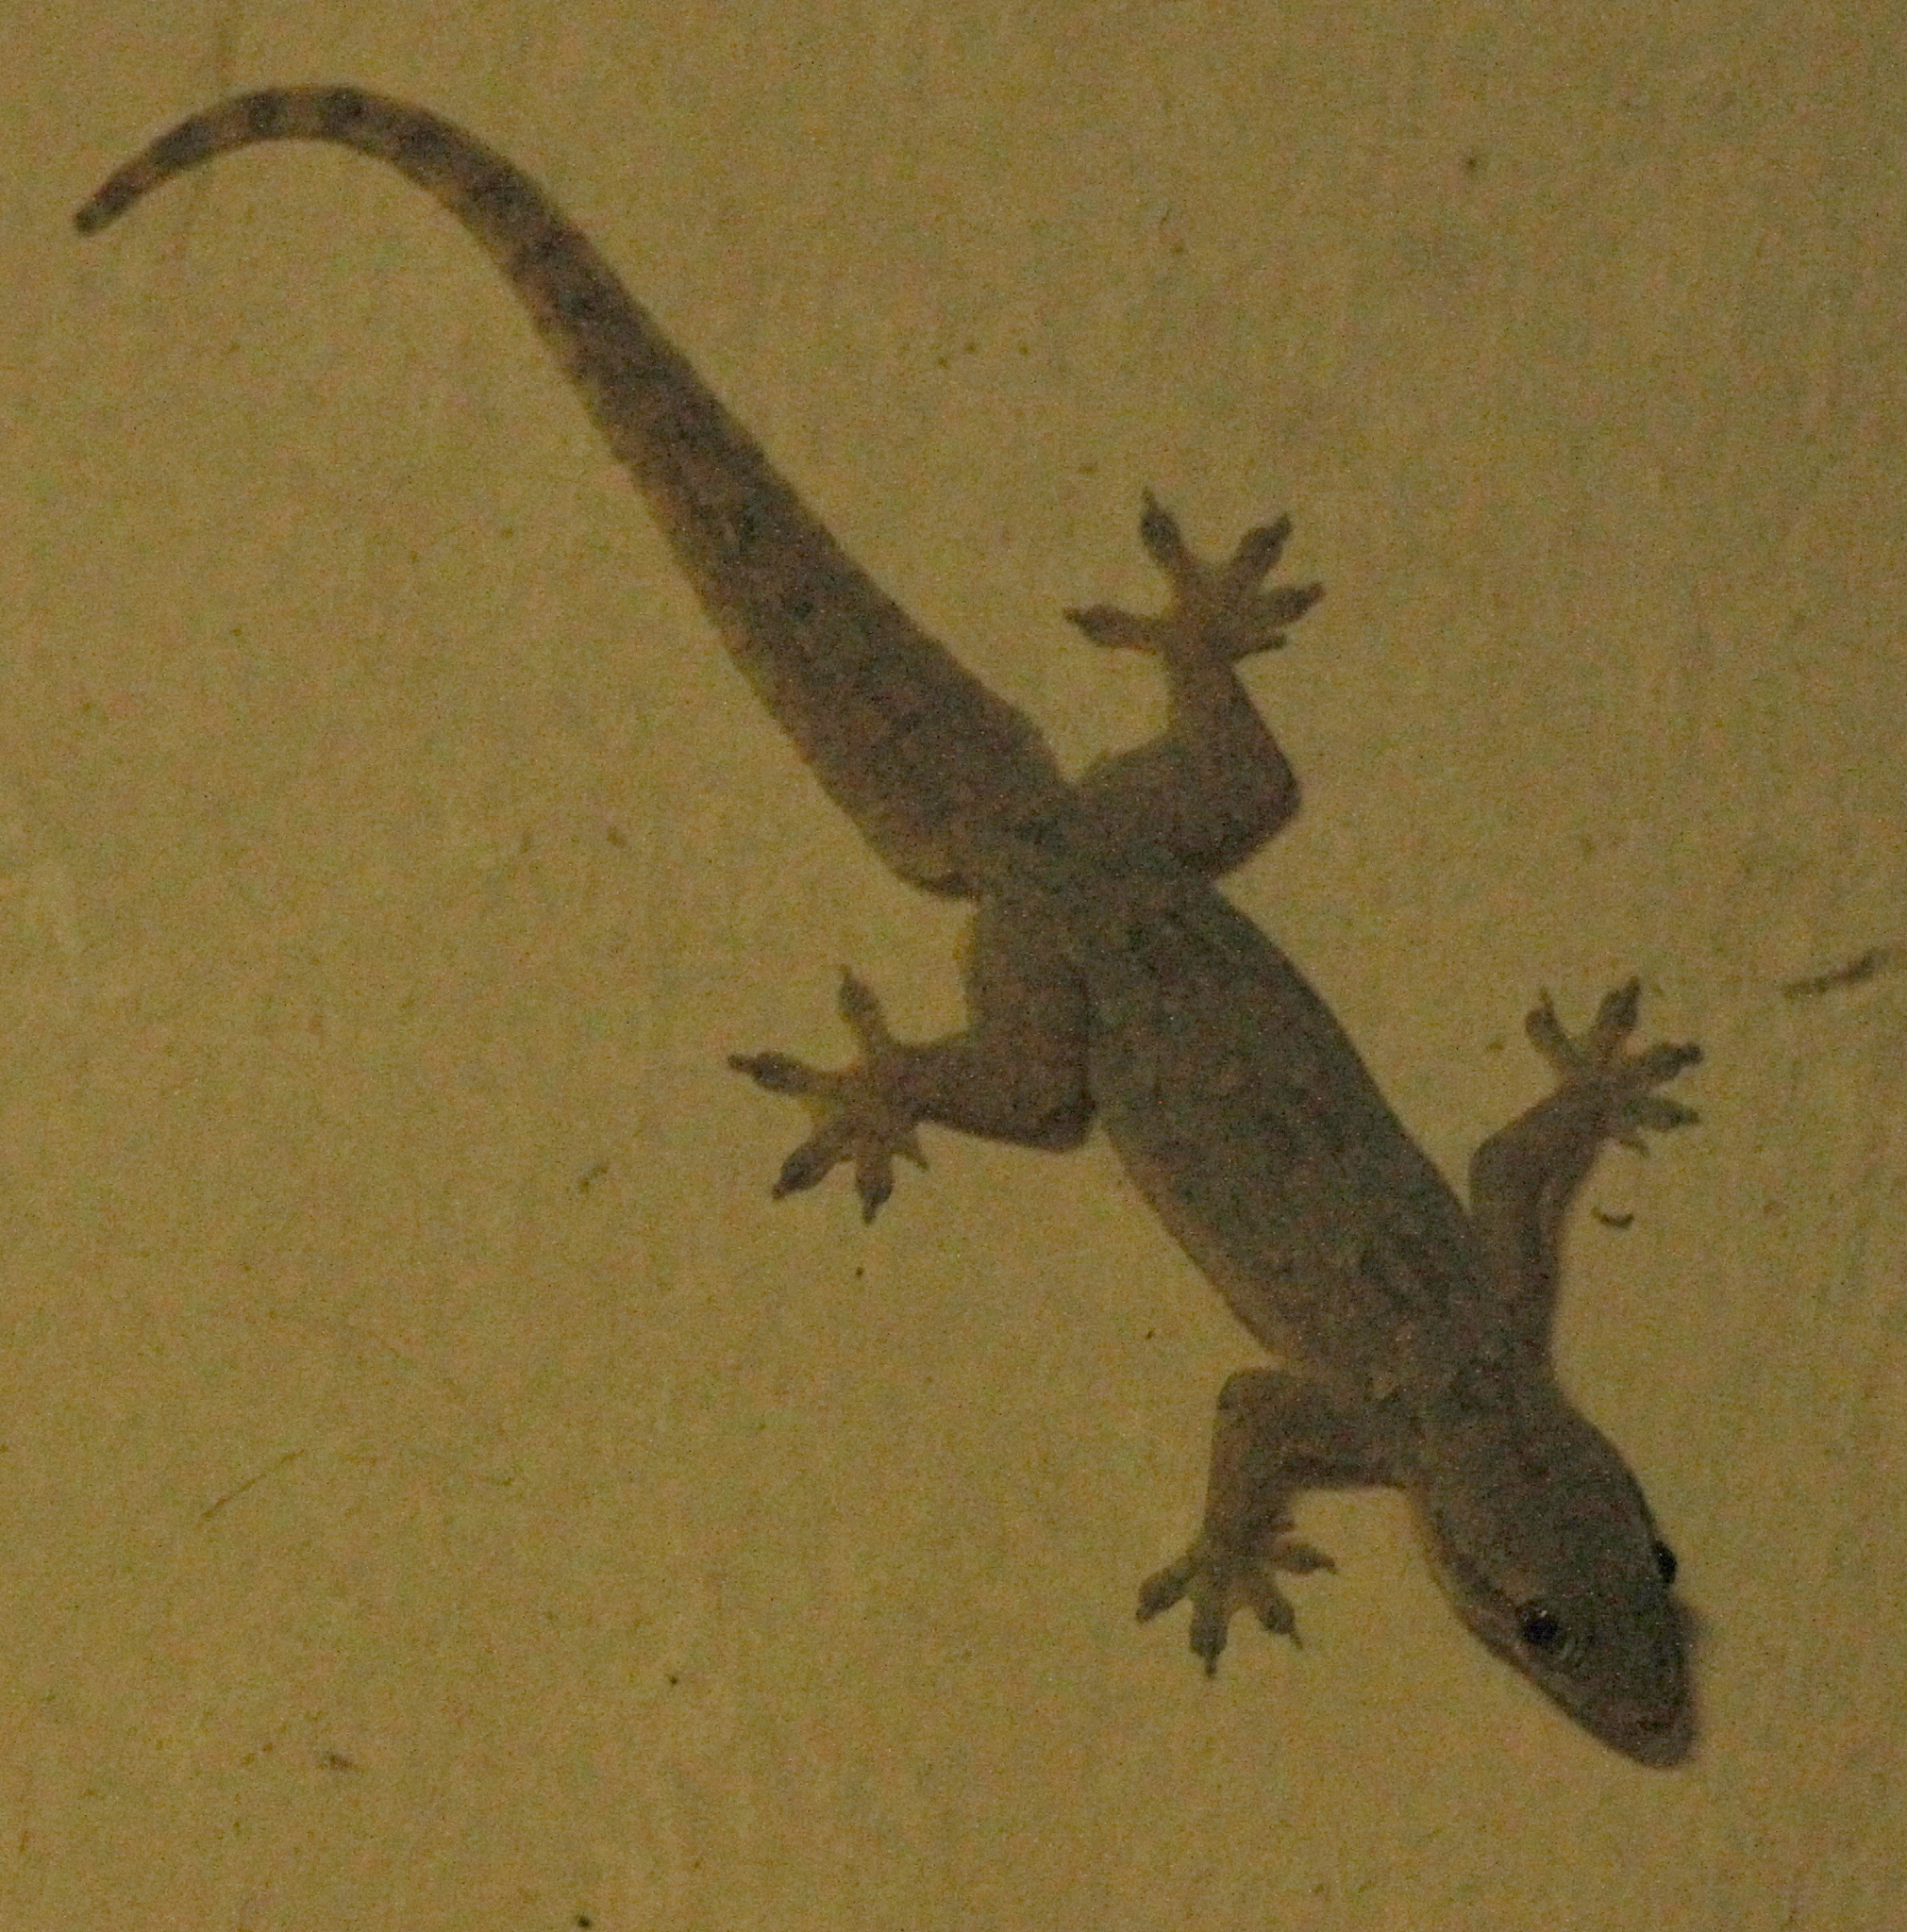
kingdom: Animalia
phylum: Chordata
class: Squamata
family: Gekkonidae
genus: Hemidactylus
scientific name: Hemidactylus platyurus
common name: Flat-tailed house gecko
